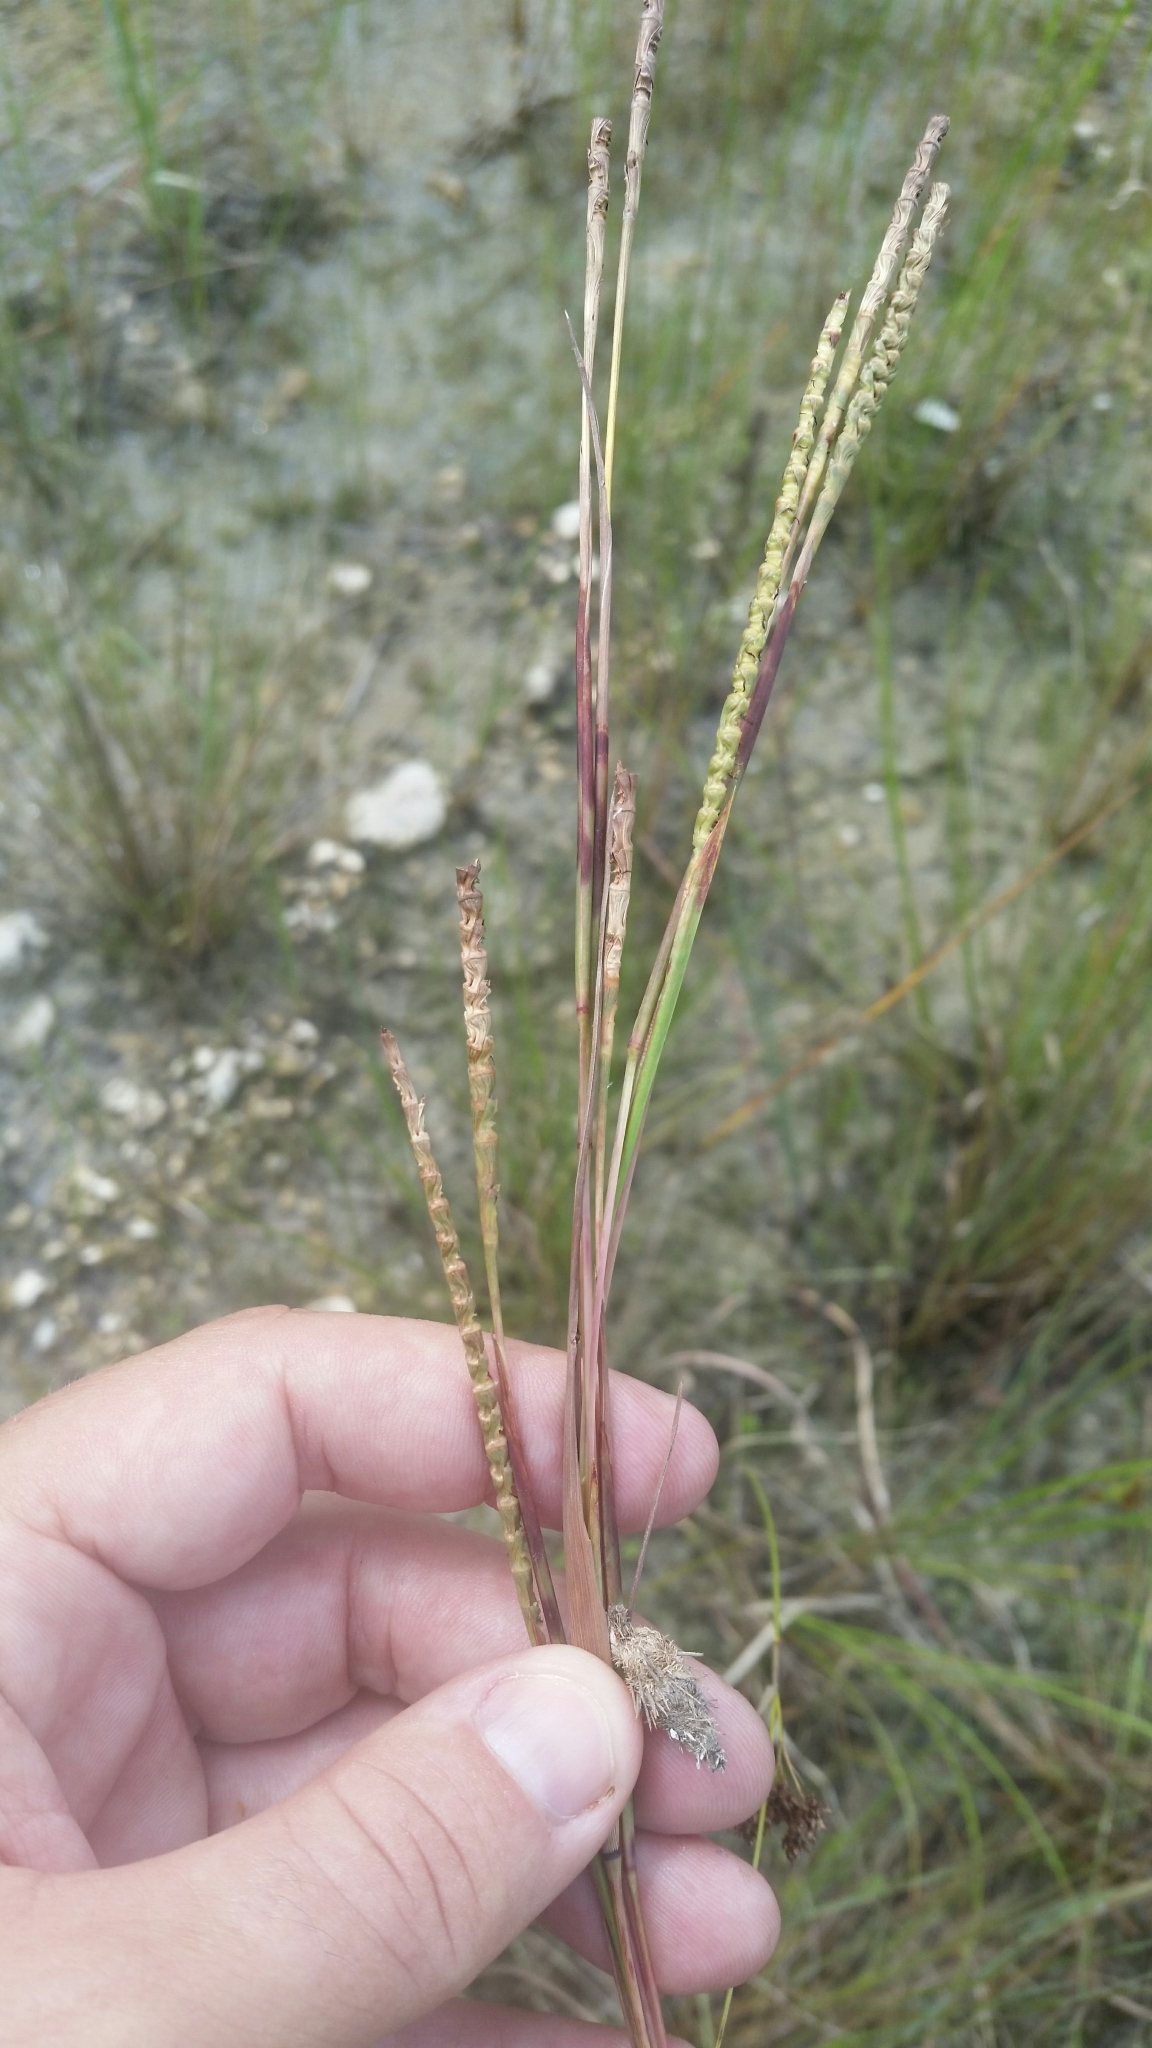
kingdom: Plantae
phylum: Tracheophyta
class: Liliopsida
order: Poales
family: Poaceae
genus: Rottboellia
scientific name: Rottboellia rugosa
